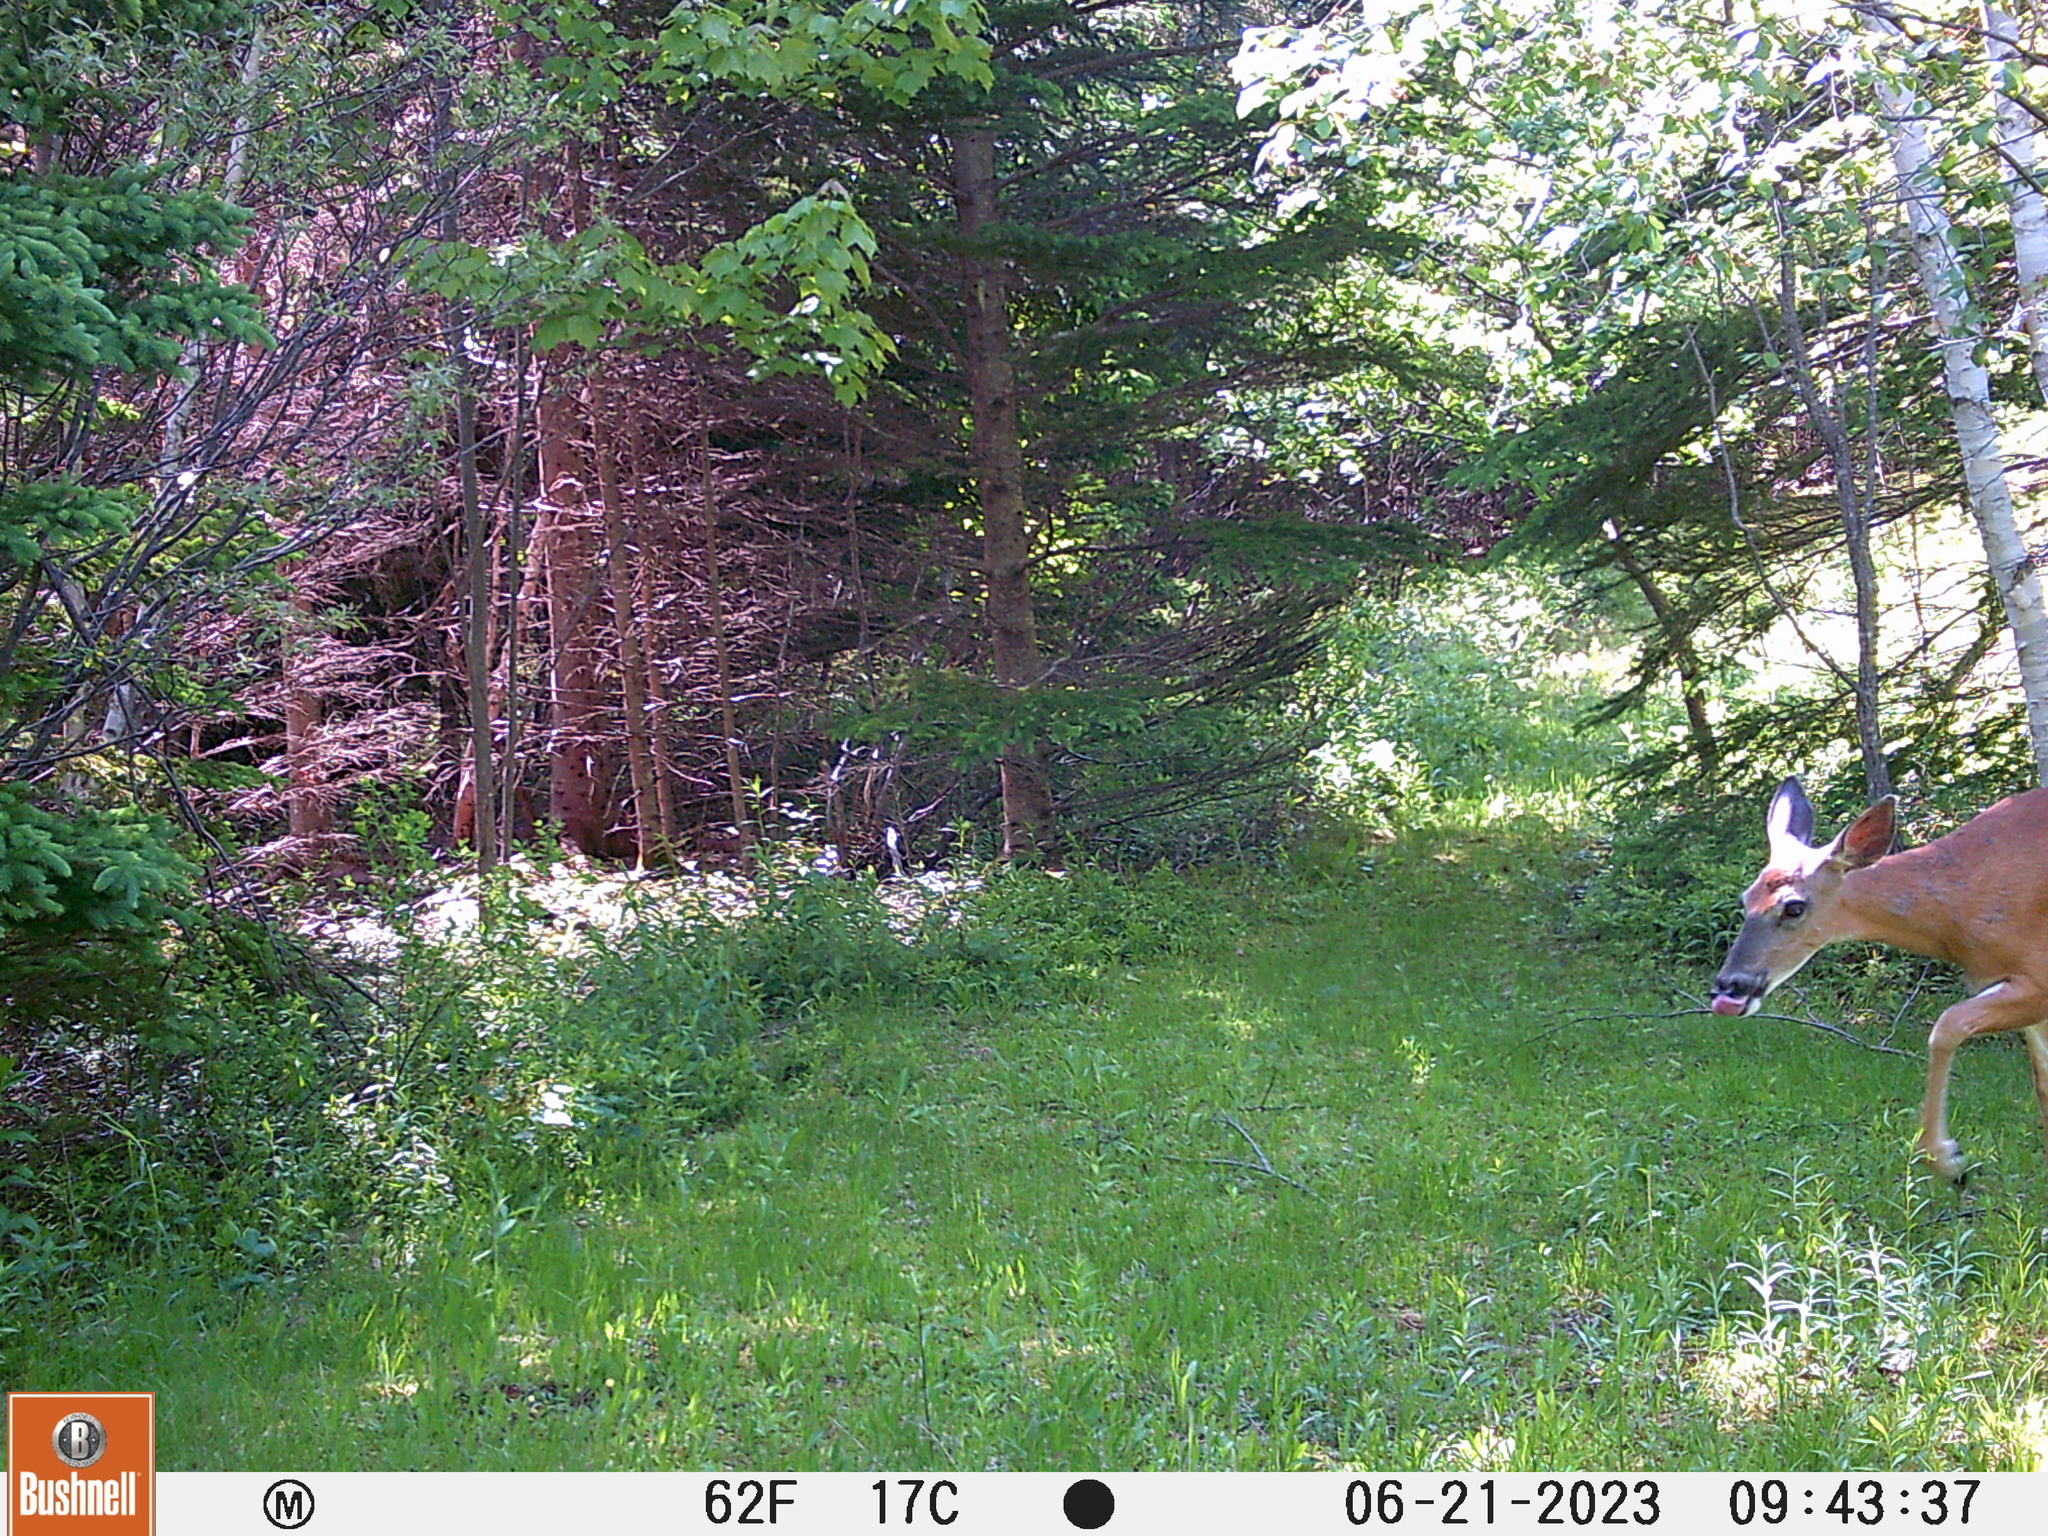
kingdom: Animalia
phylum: Chordata
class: Mammalia
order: Artiodactyla
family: Cervidae
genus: Odocoileus
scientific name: Odocoileus virginianus
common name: White-tailed deer
